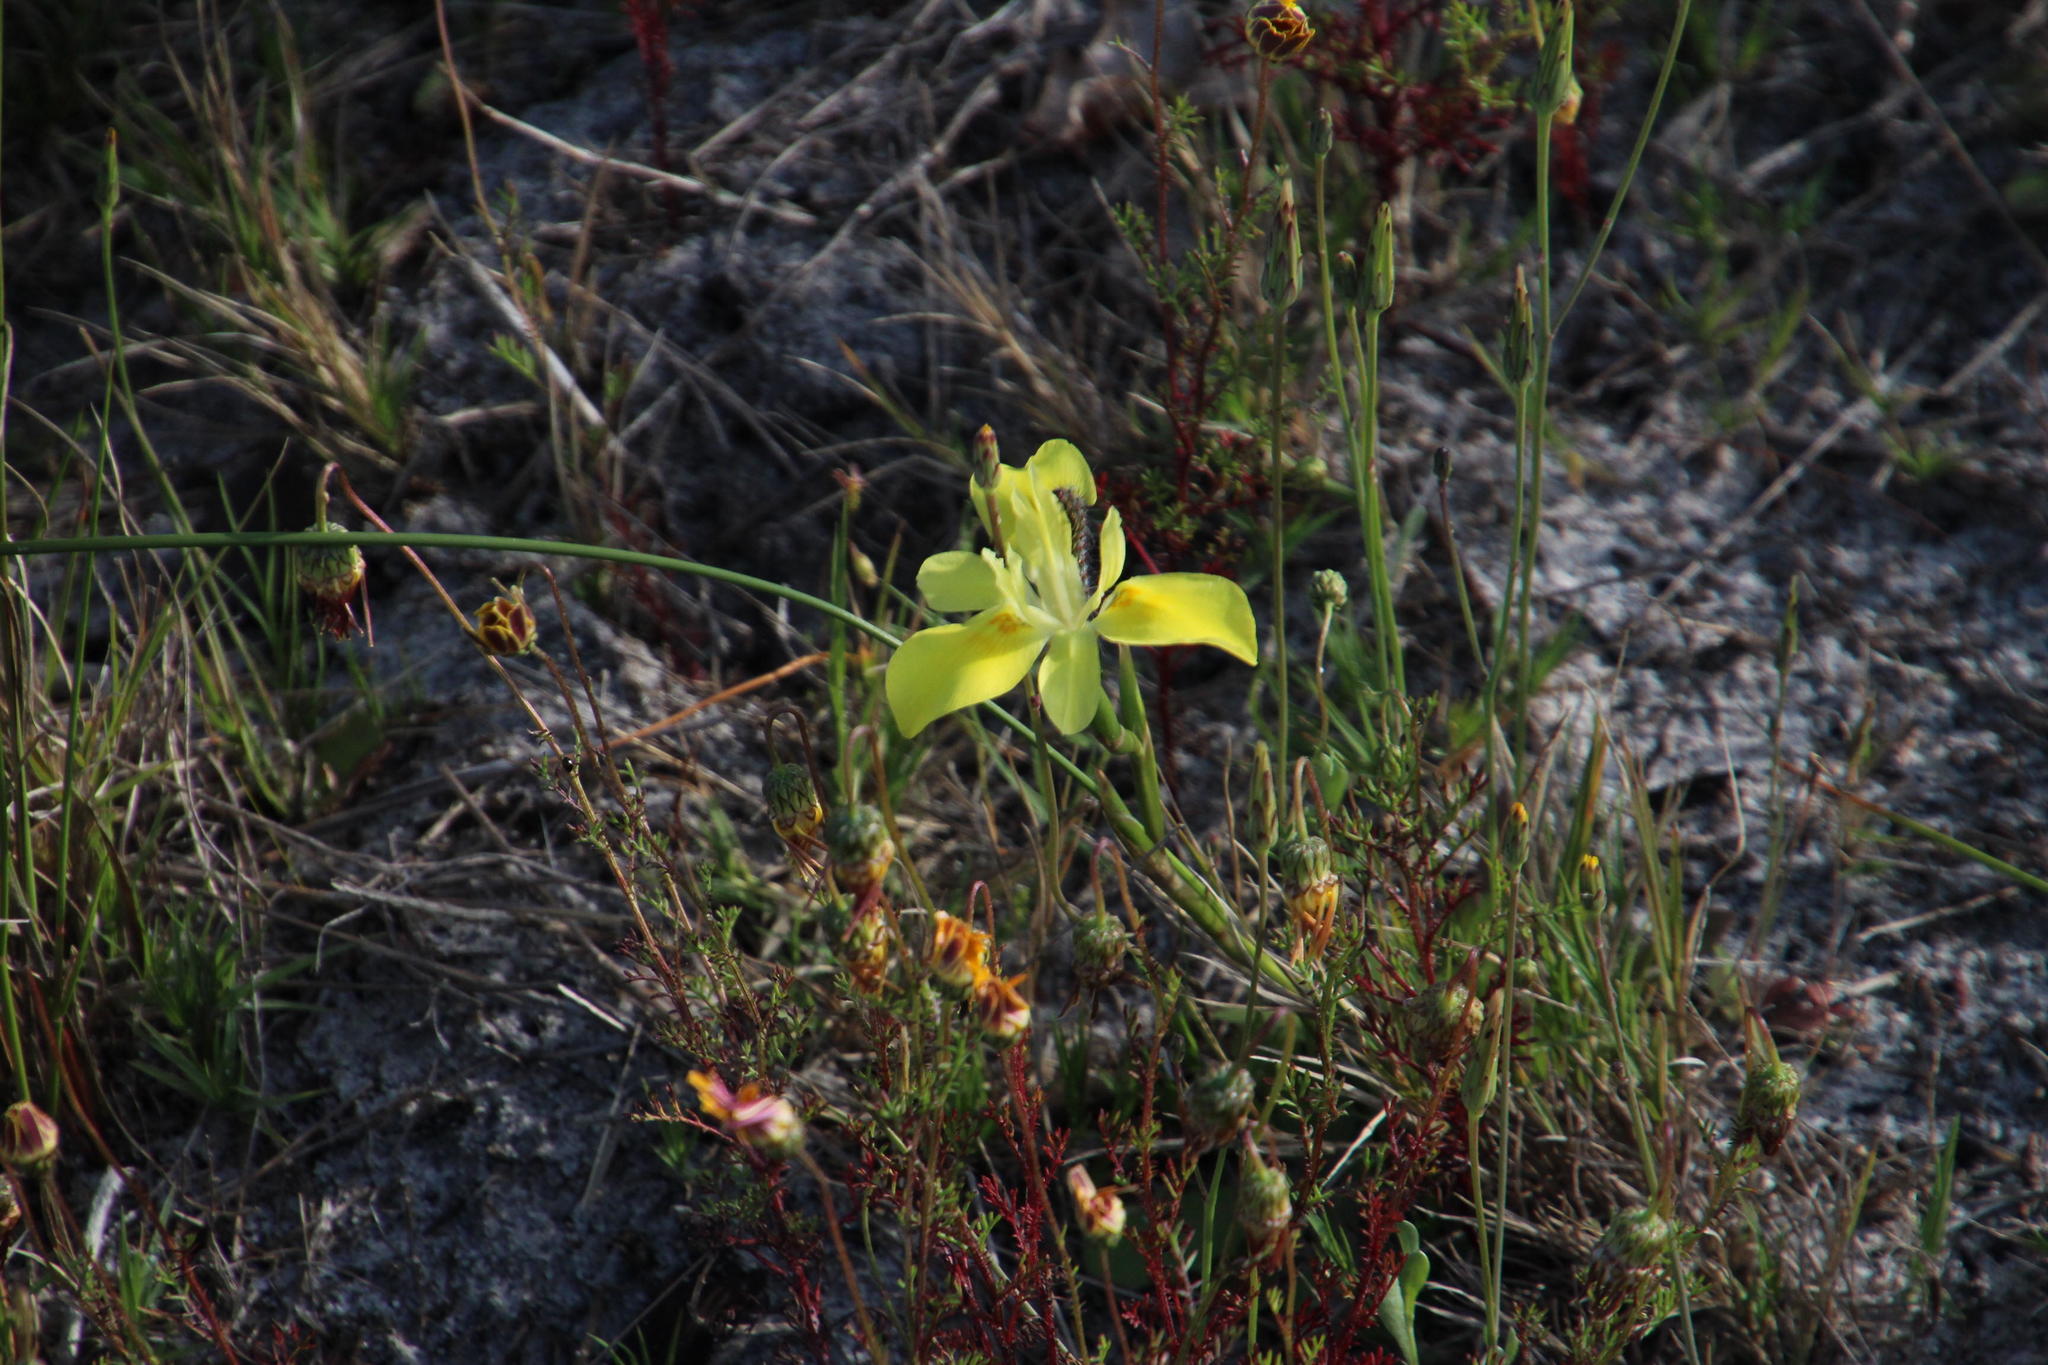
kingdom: Plantae
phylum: Tracheophyta
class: Liliopsida
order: Asparagales
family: Iridaceae
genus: Moraea
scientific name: Moraea neglecta
